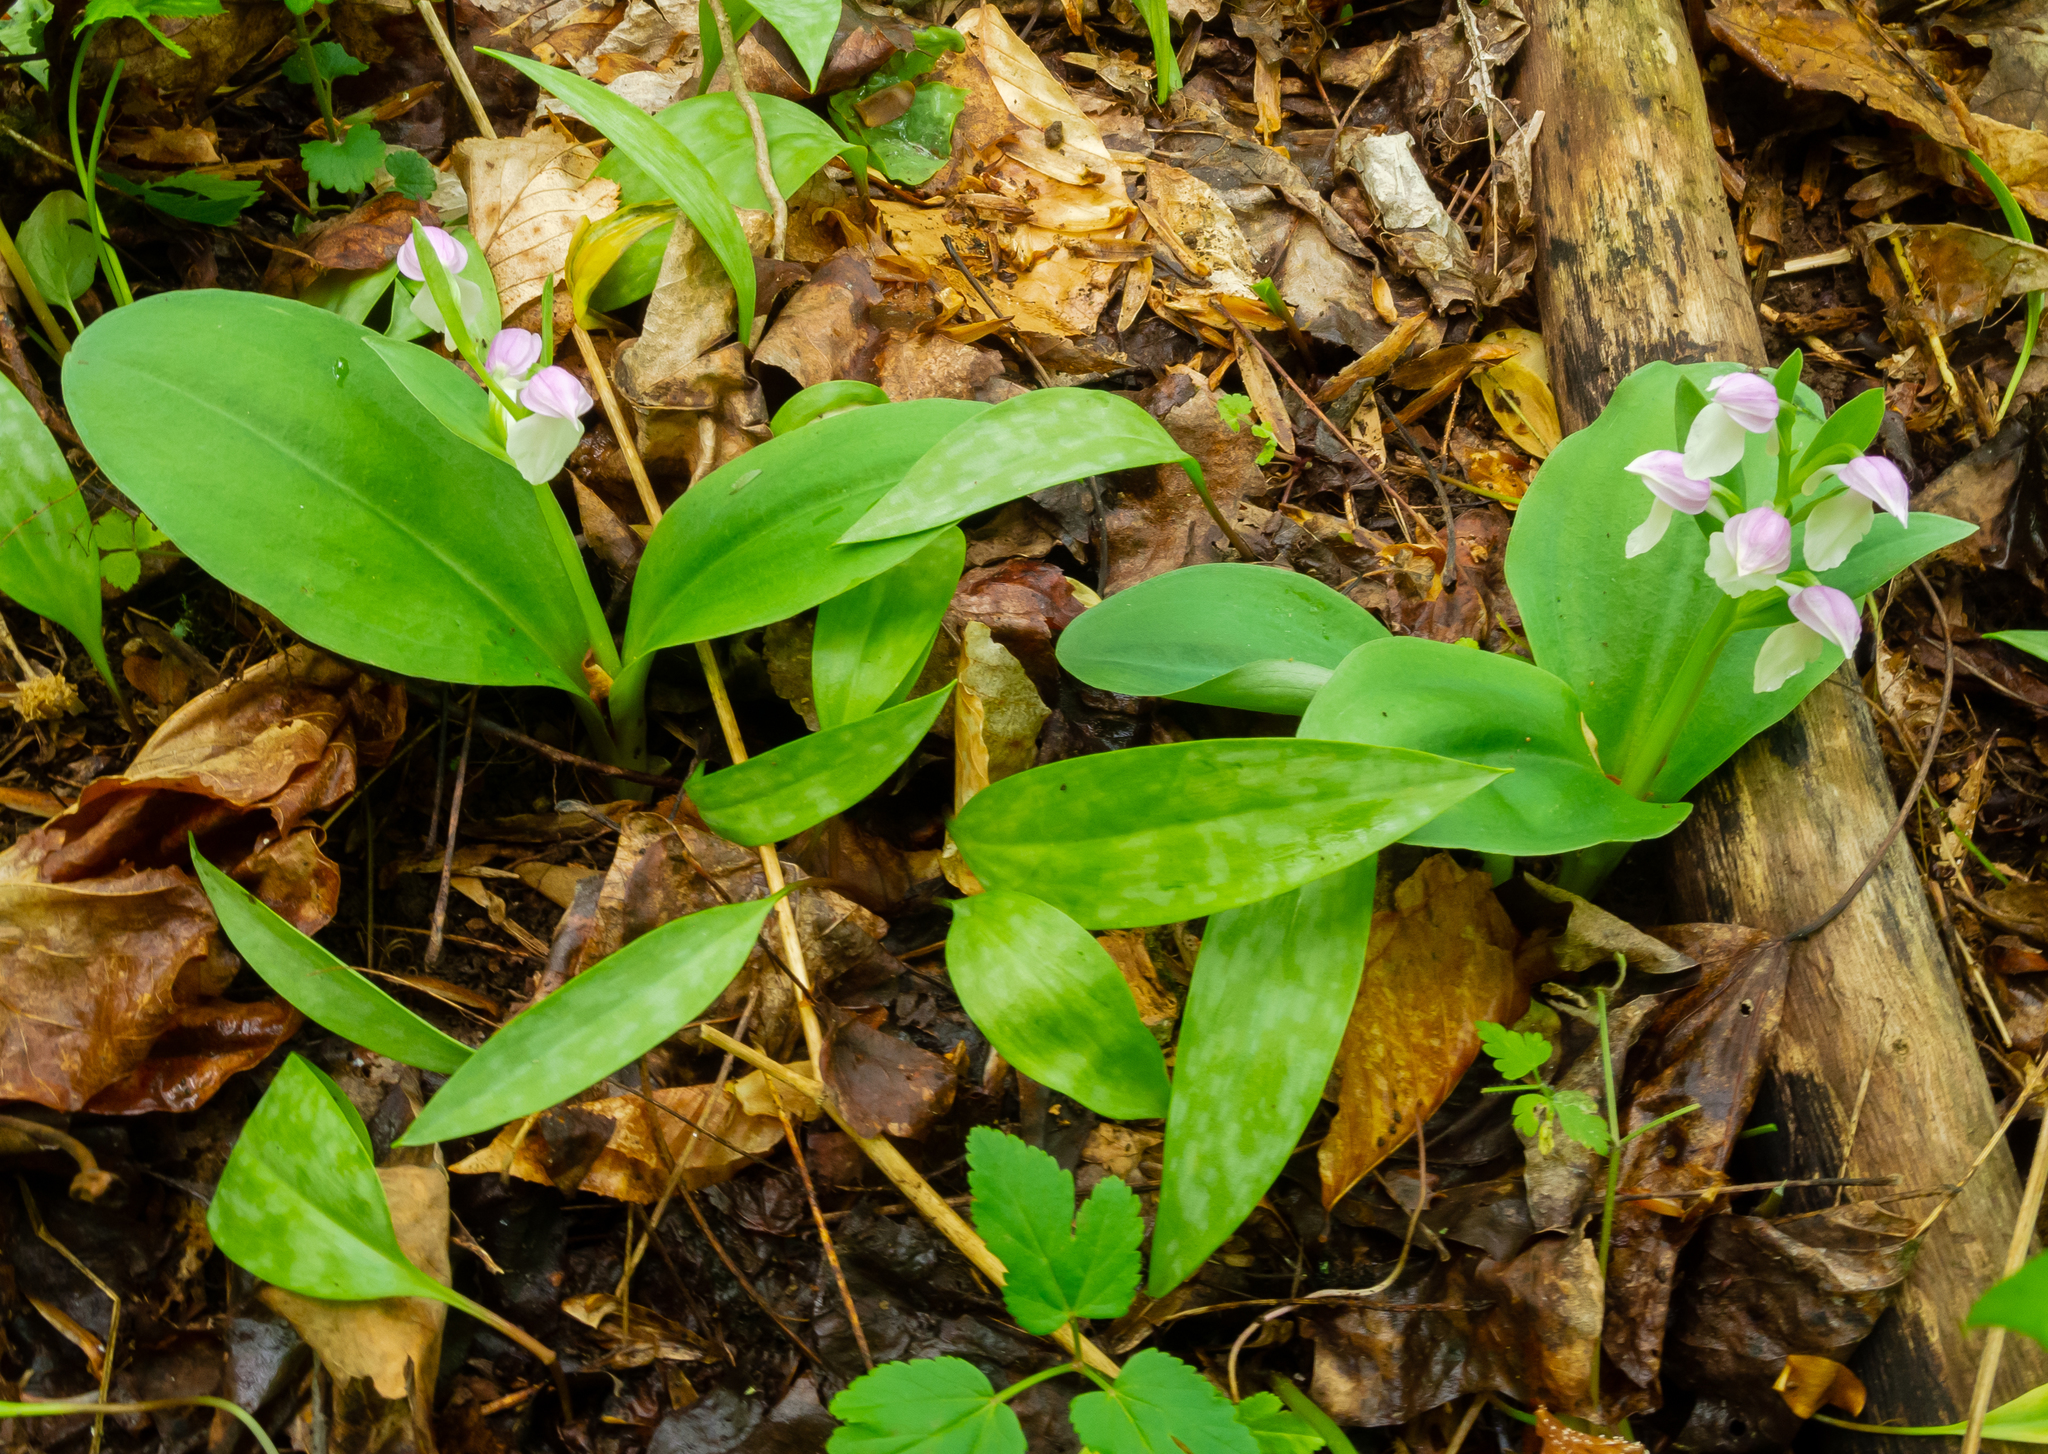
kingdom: Plantae
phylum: Tracheophyta
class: Liliopsida
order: Asparagales
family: Orchidaceae
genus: Galearis
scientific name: Galearis spectabilis
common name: Purple-hooded orchis
